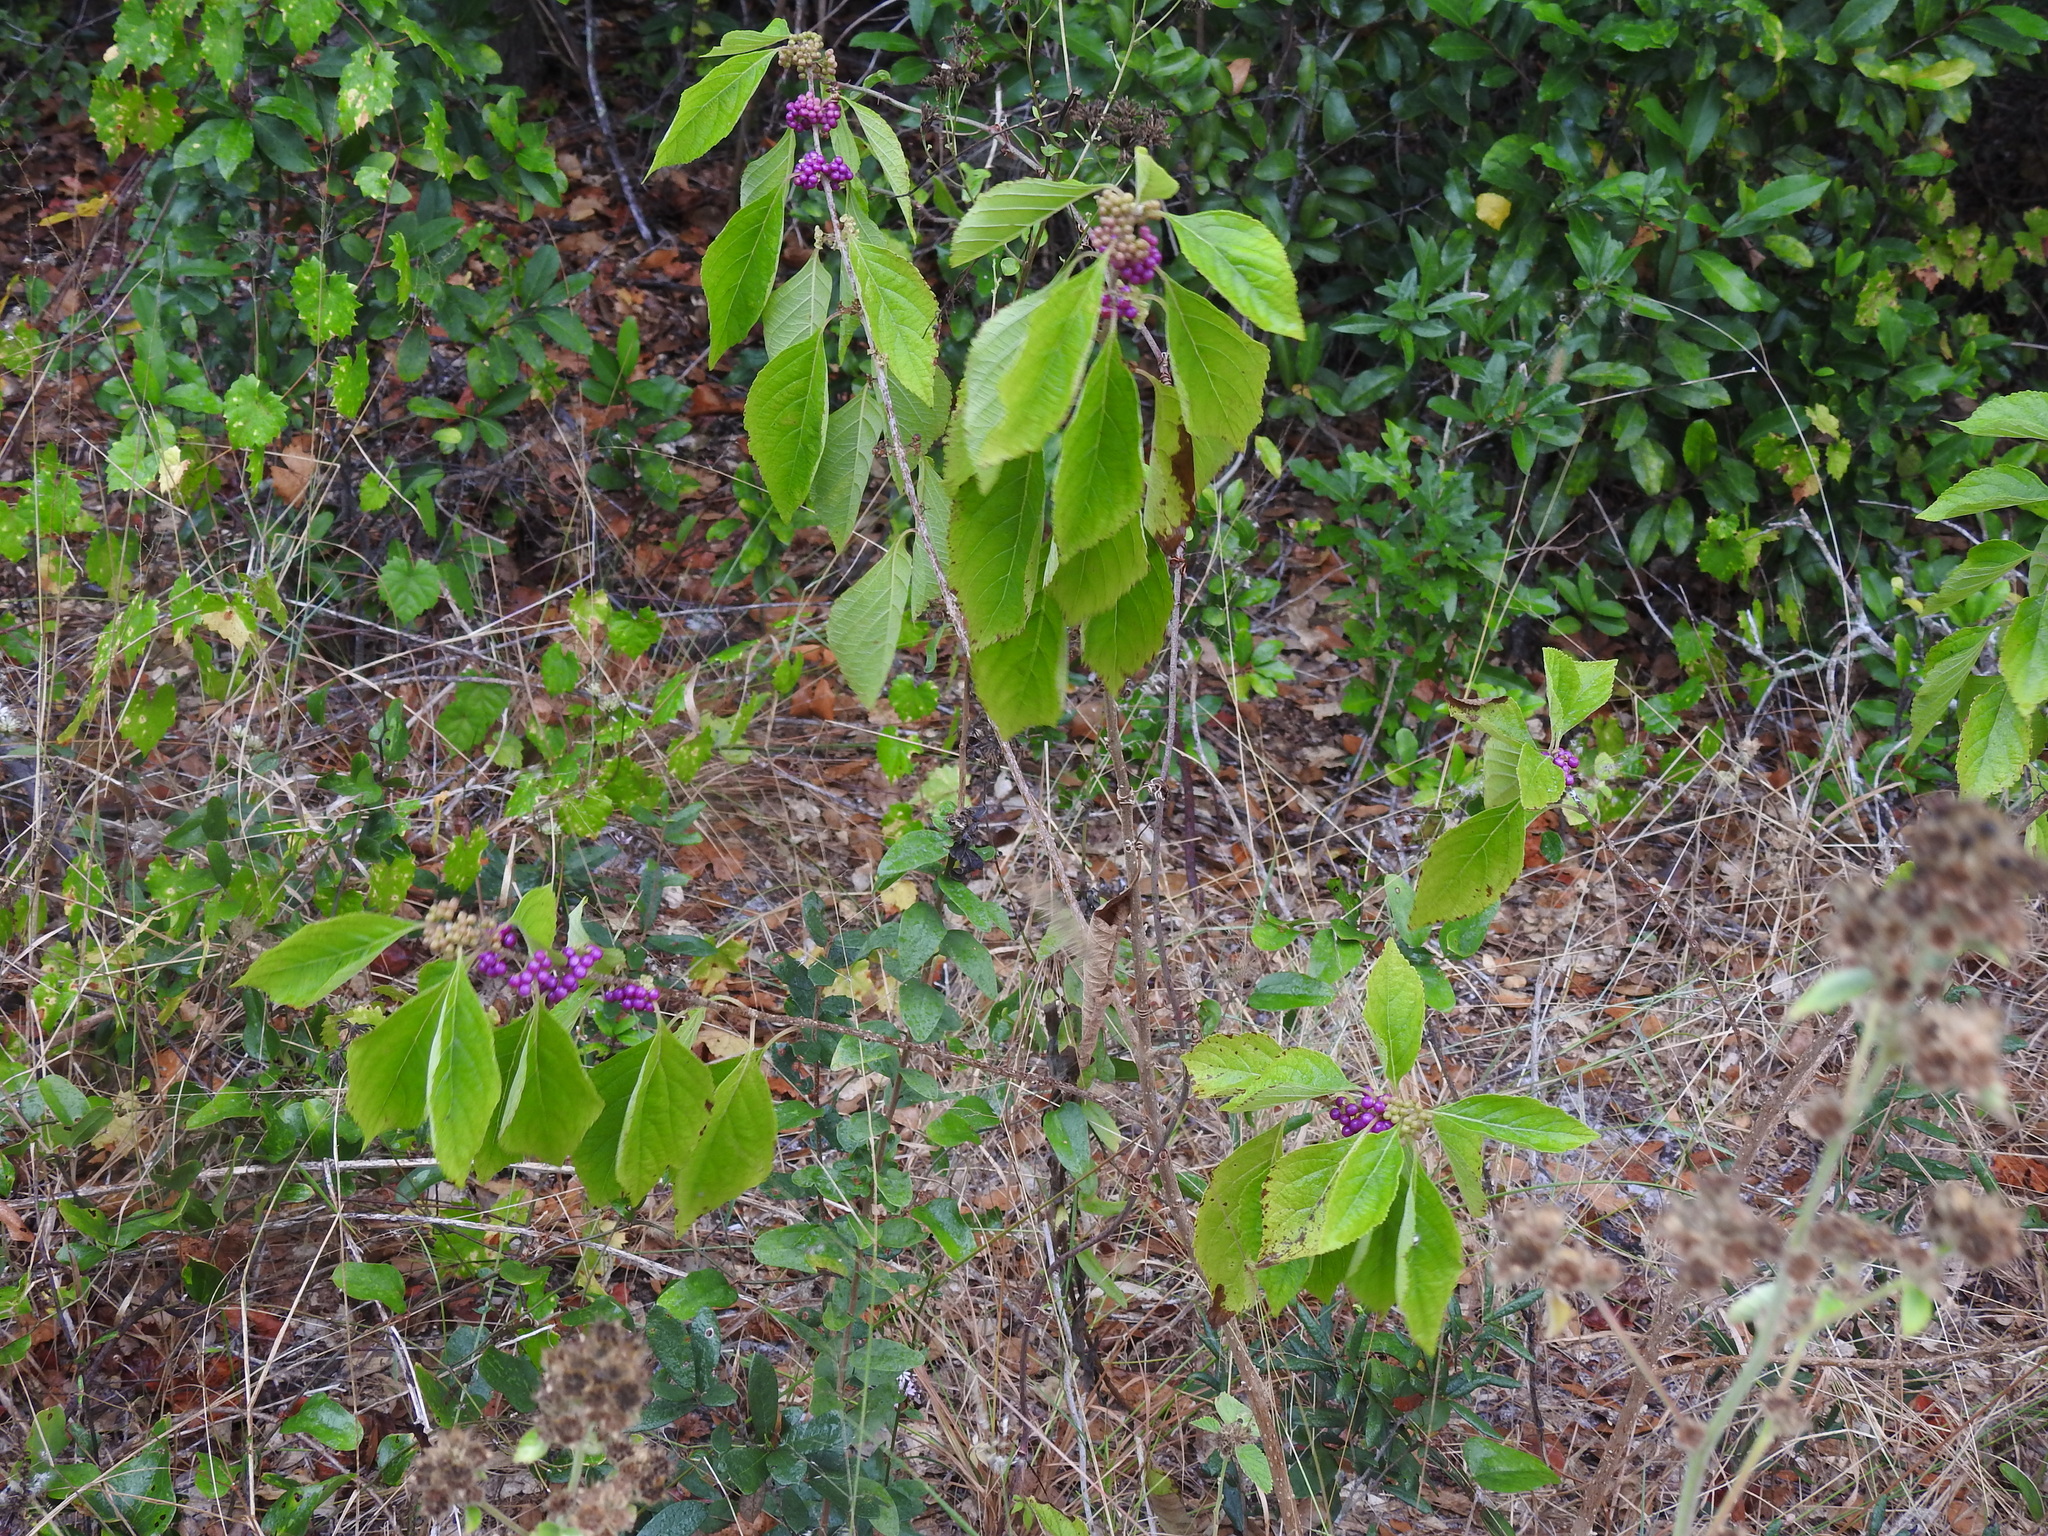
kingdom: Plantae
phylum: Tracheophyta
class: Magnoliopsida
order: Lamiales
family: Lamiaceae
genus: Callicarpa
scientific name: Callicarpa americana
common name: American beautyberry
